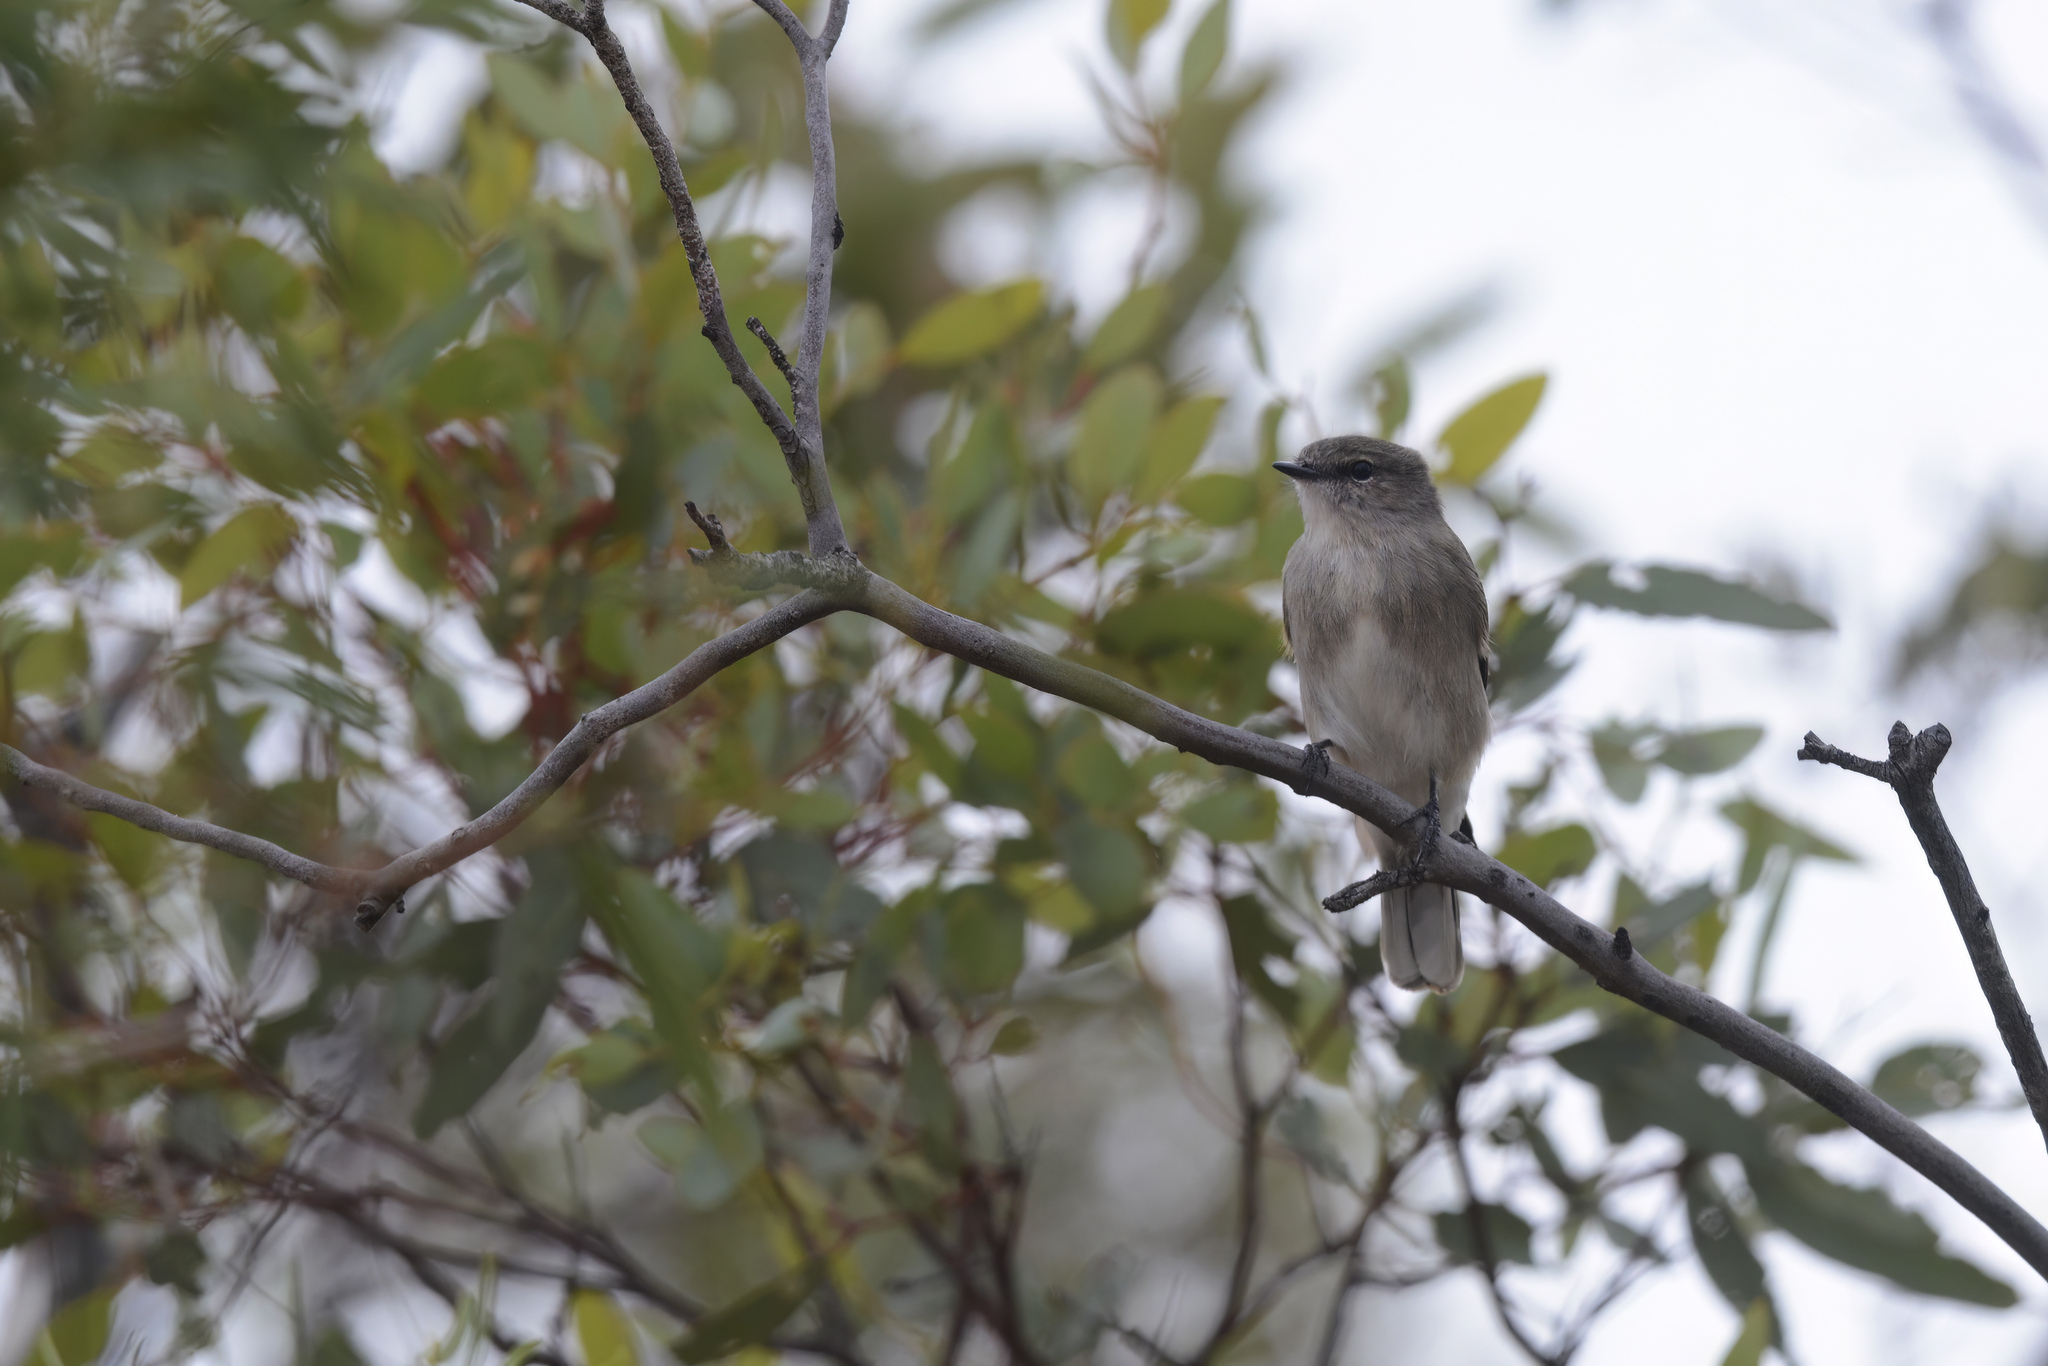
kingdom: Animalia
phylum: Chordata
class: Aves
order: Passeriformes
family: Petroicidae
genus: Microeca
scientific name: Microeca fascinans
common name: Jacky winter
